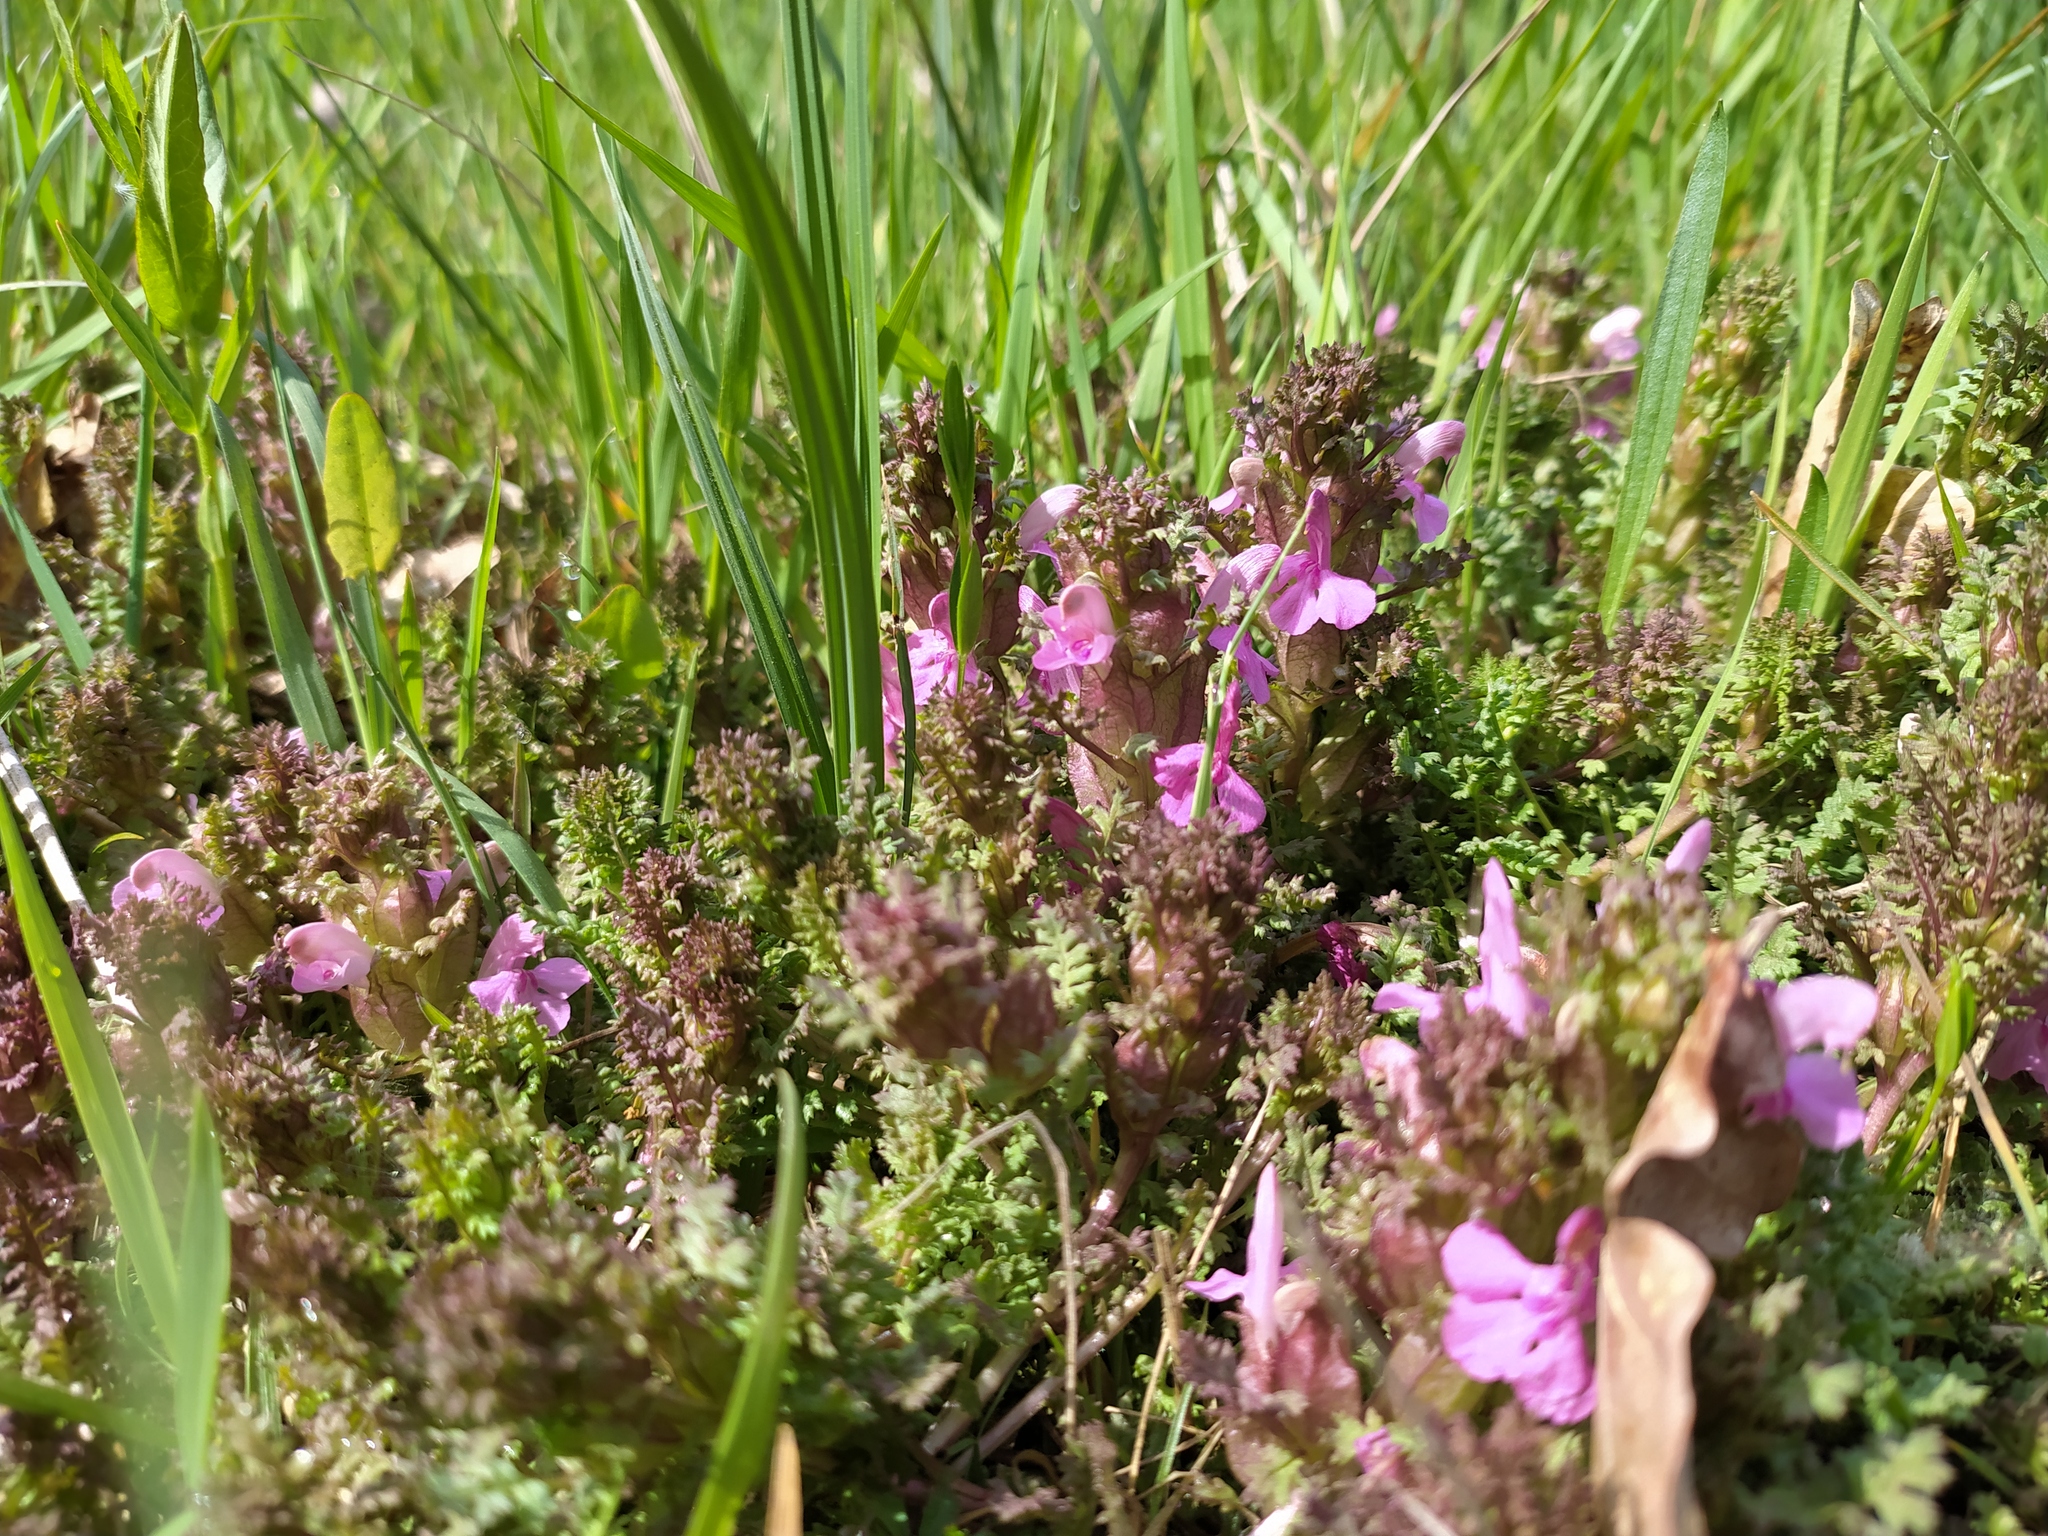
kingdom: Plantae
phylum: Tracheophyta
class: Magnoliopsida
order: Lamiales
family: Orobanchaceae
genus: Pedicularis
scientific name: Pedicularis sylvatica
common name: Lousewort
